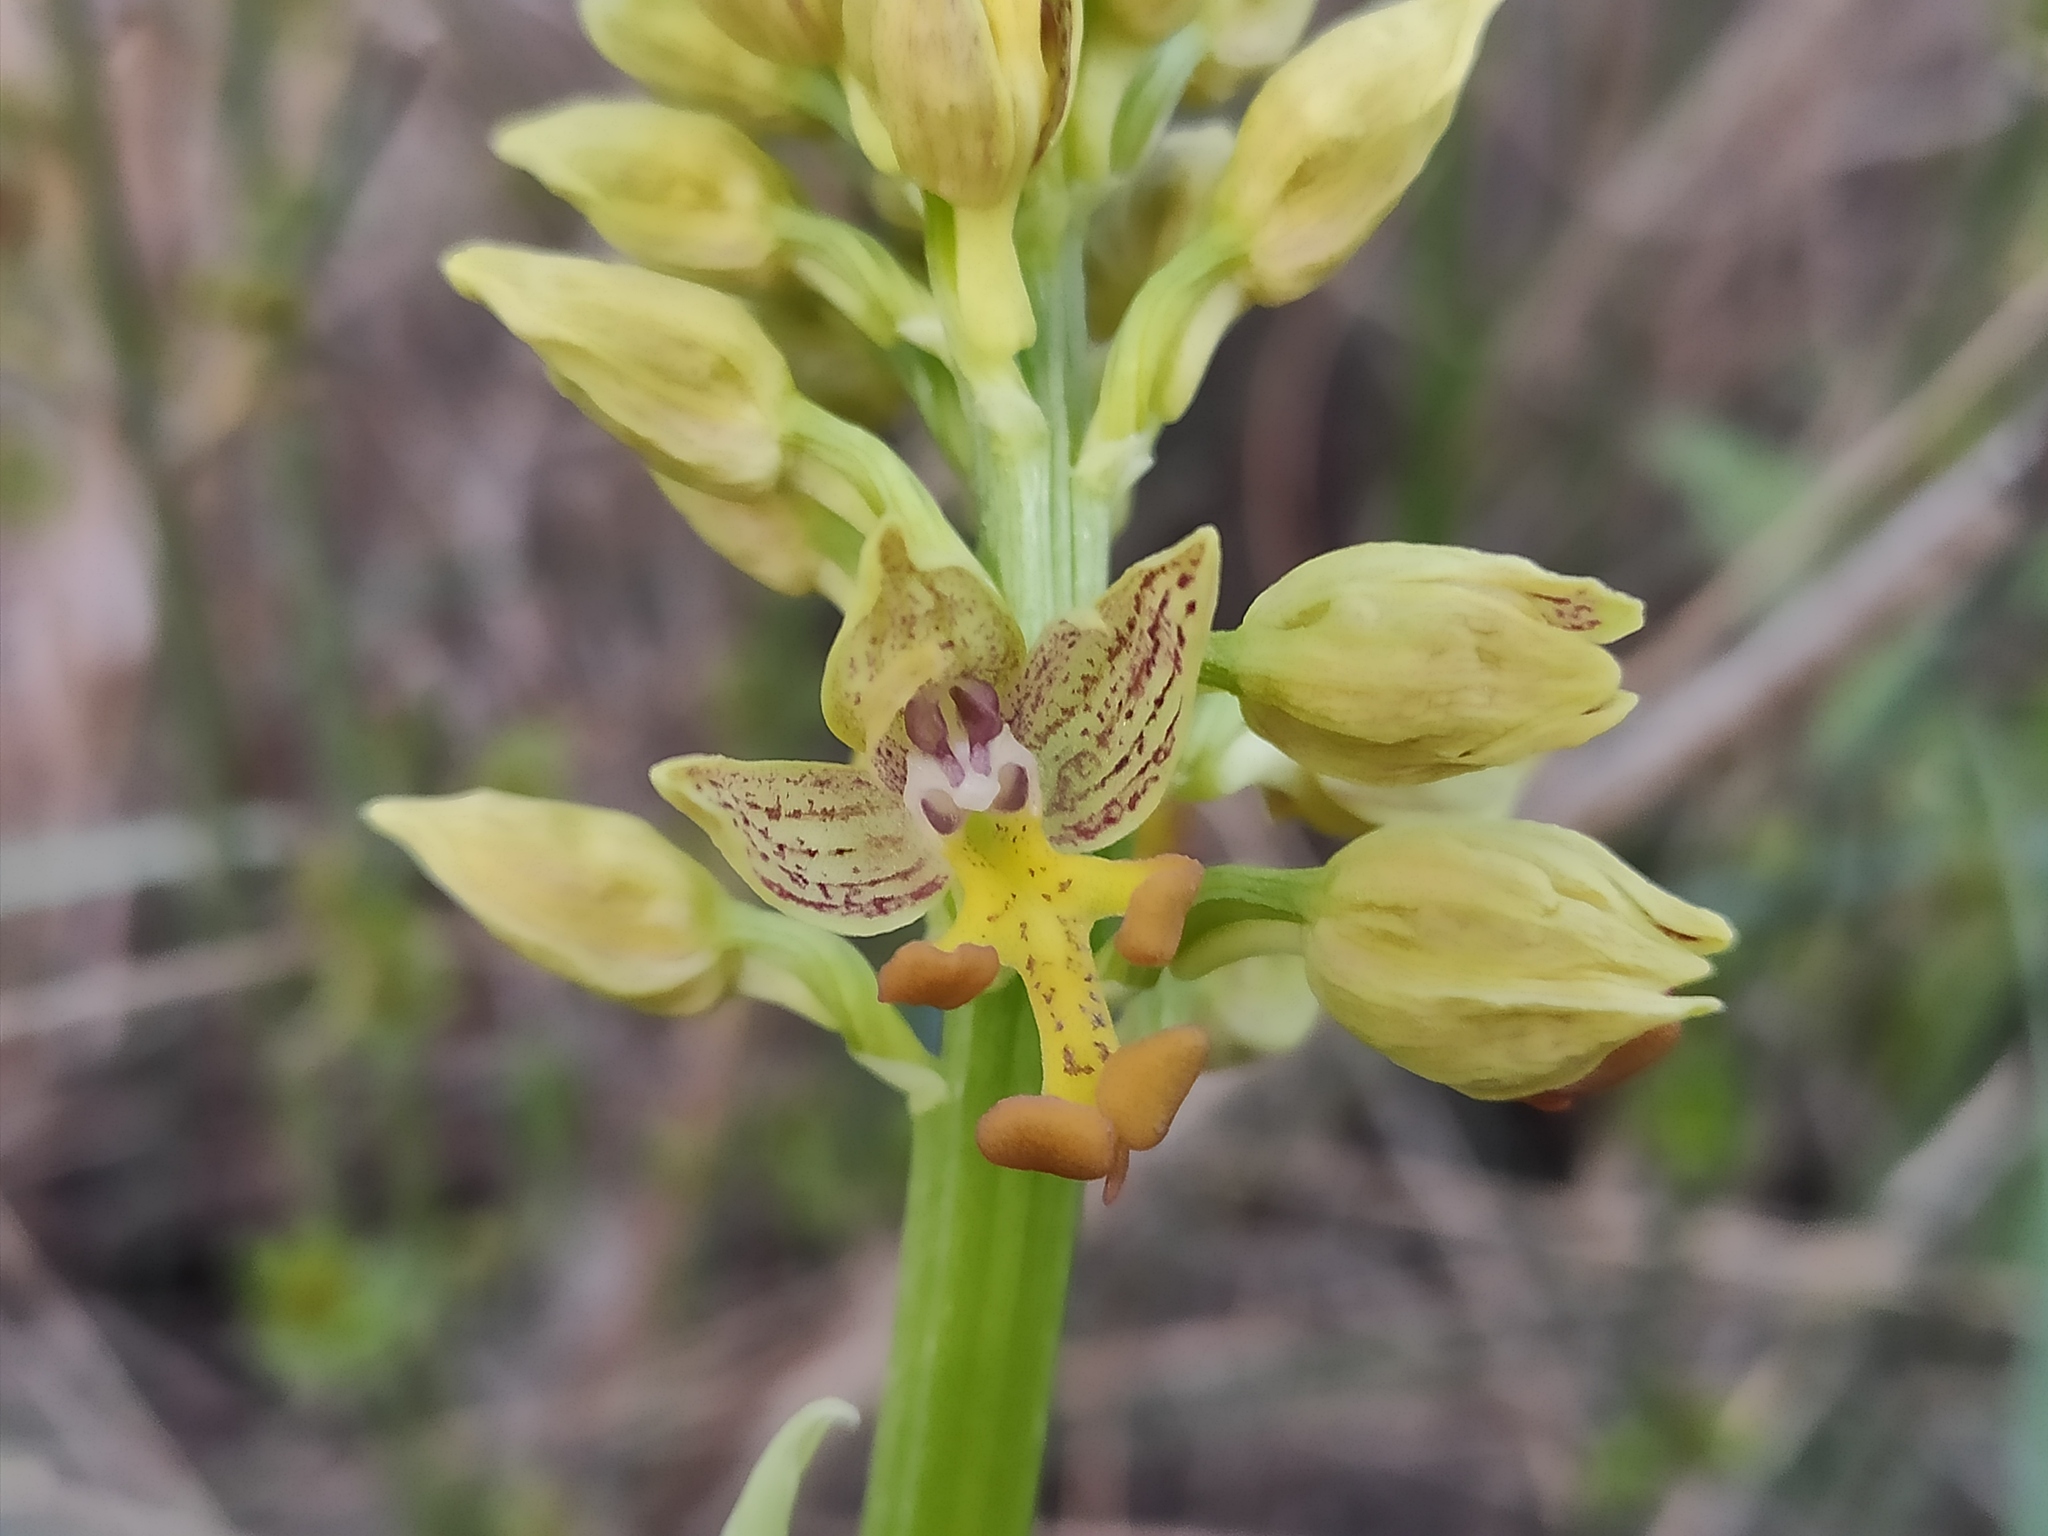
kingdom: Plantae
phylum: Tracheophyta
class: Liliopsida
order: Asparagales
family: Orchidaceae
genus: Orchis
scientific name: Orchis punctulata
